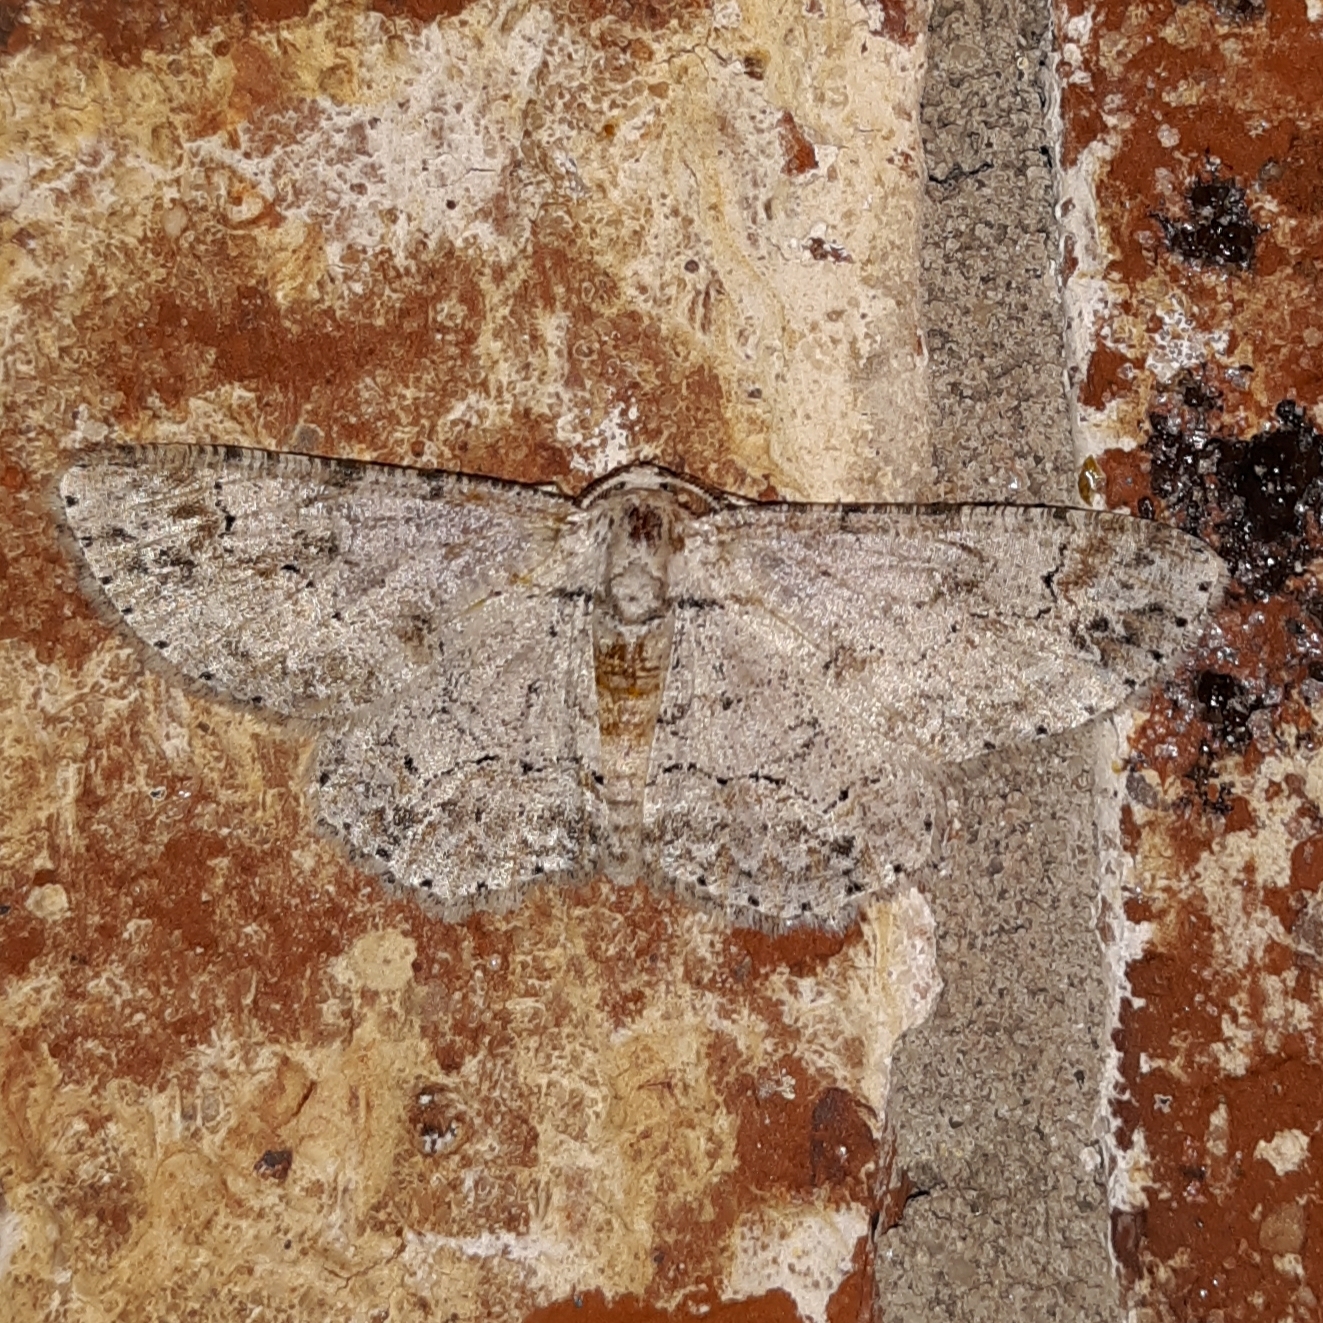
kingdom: Animalia
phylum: Arthropoda
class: Insecta
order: Lepidoptera
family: Geometridae
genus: Iridopsis
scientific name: Iridopsis defectaria
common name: Brown-shaded gray
